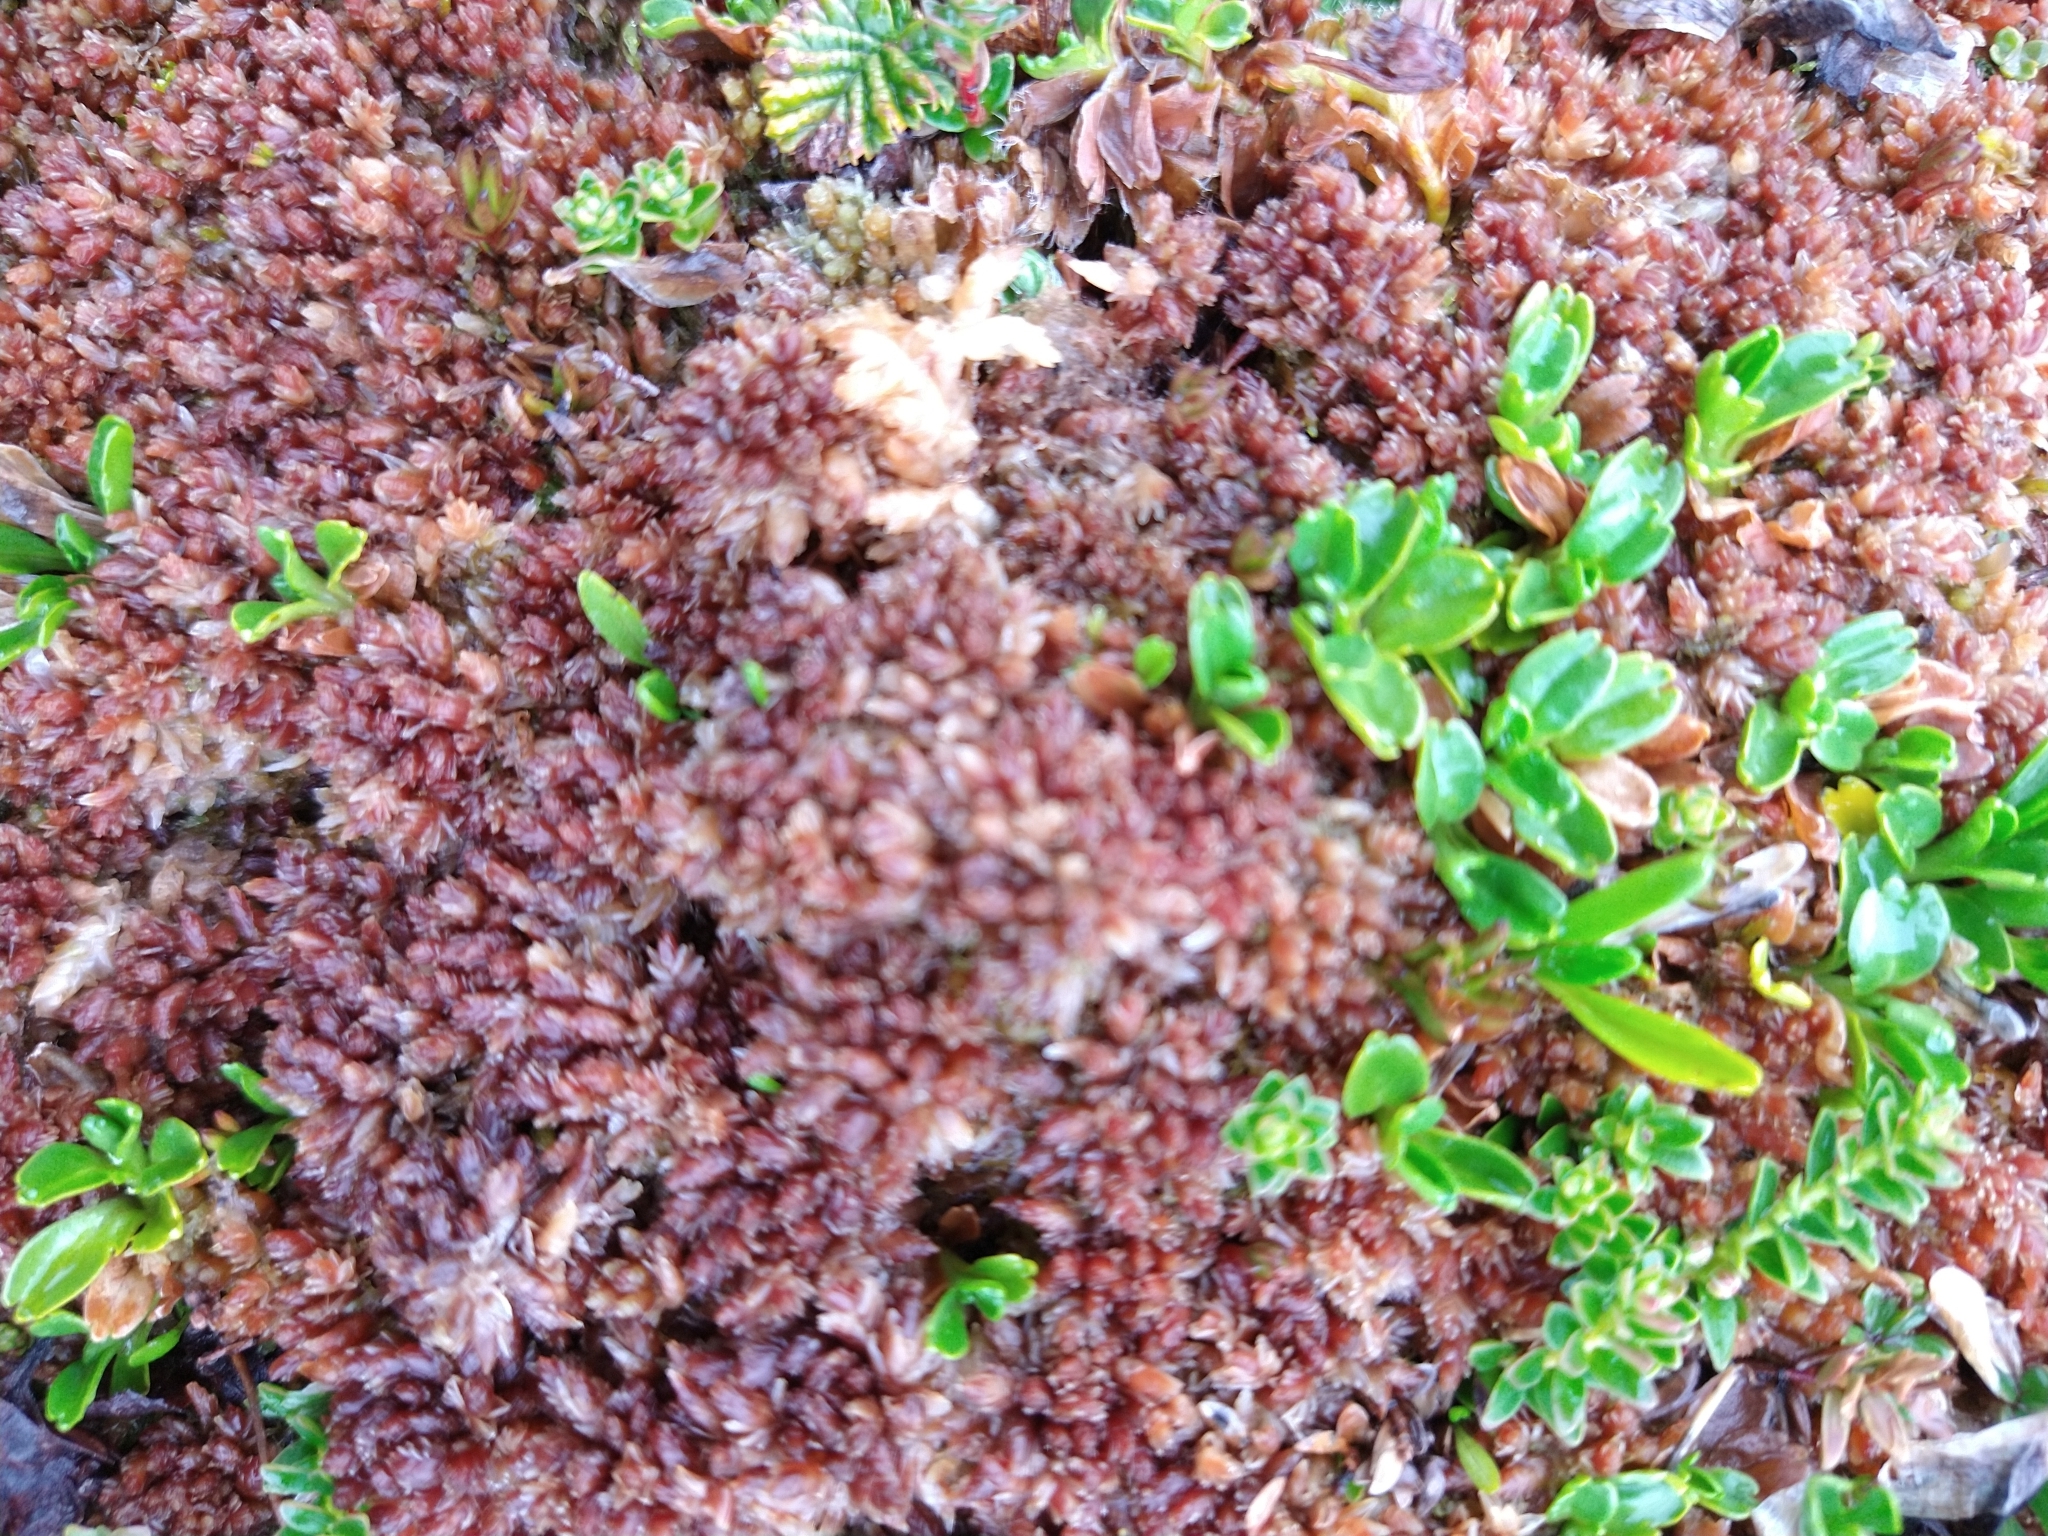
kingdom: Plantae
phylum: Bryophyta
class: Sphagnopsida
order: Sphagnales
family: Sphagnaceae
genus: Sphagnum
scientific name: Sphagnum magellanicum
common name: Magellan's peat moss
